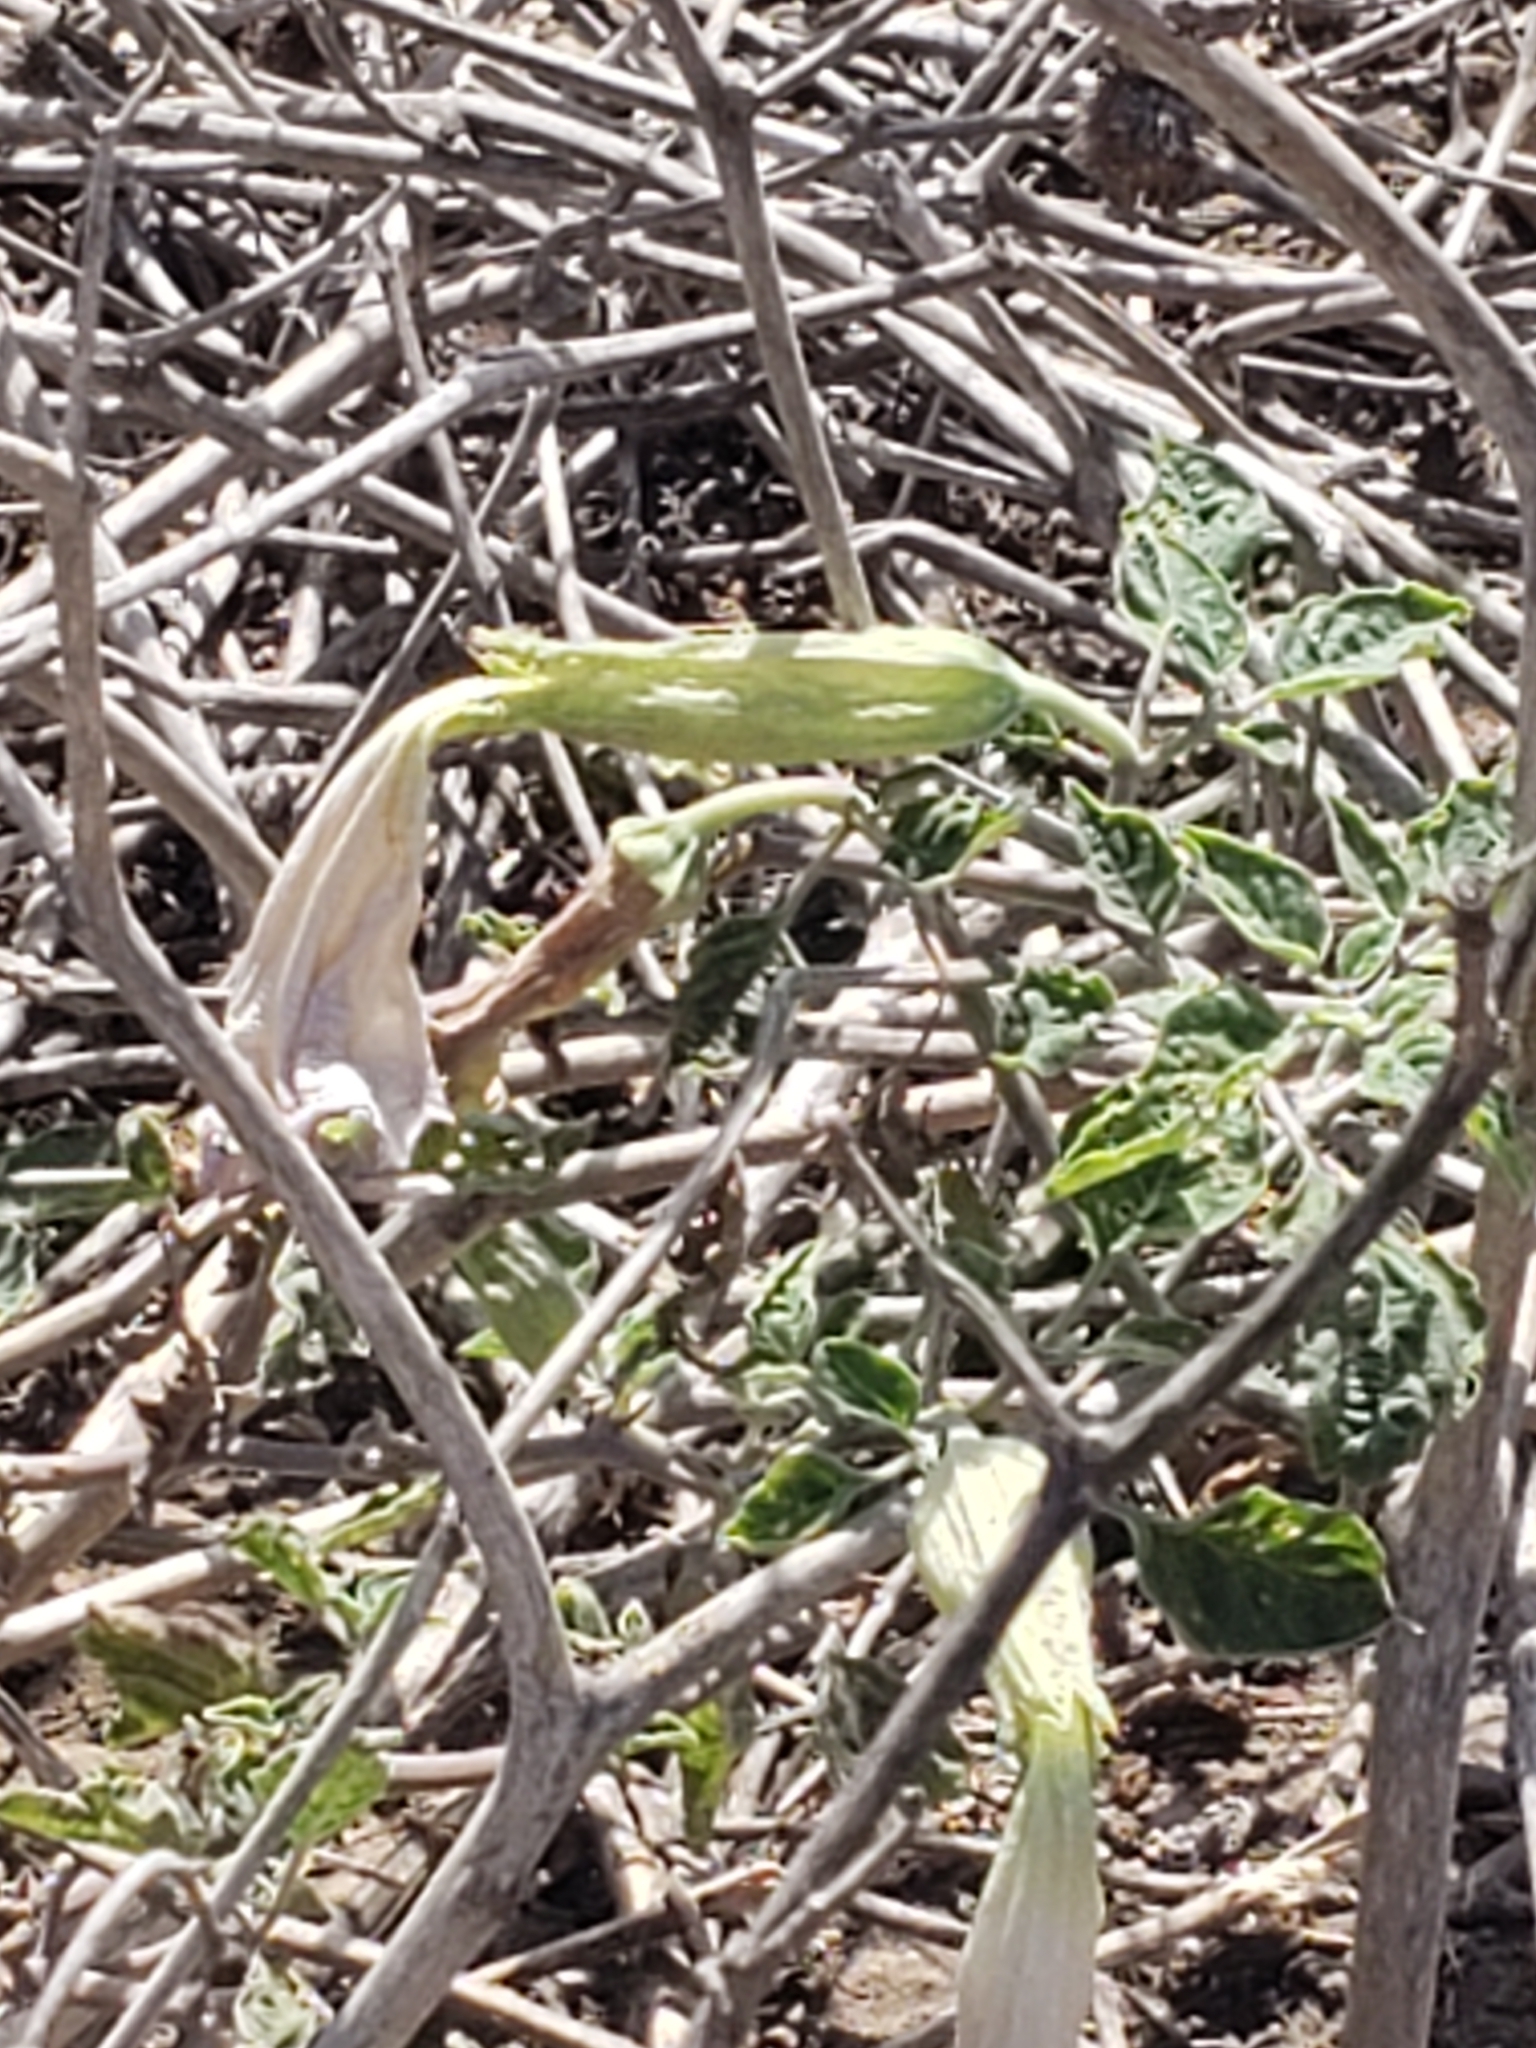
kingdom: Plantae
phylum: Tracheophyta
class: Magnoliopsida
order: Solanales
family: Solanaceae
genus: Datura
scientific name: Datura wrightii
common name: Sacred thorn-apple
